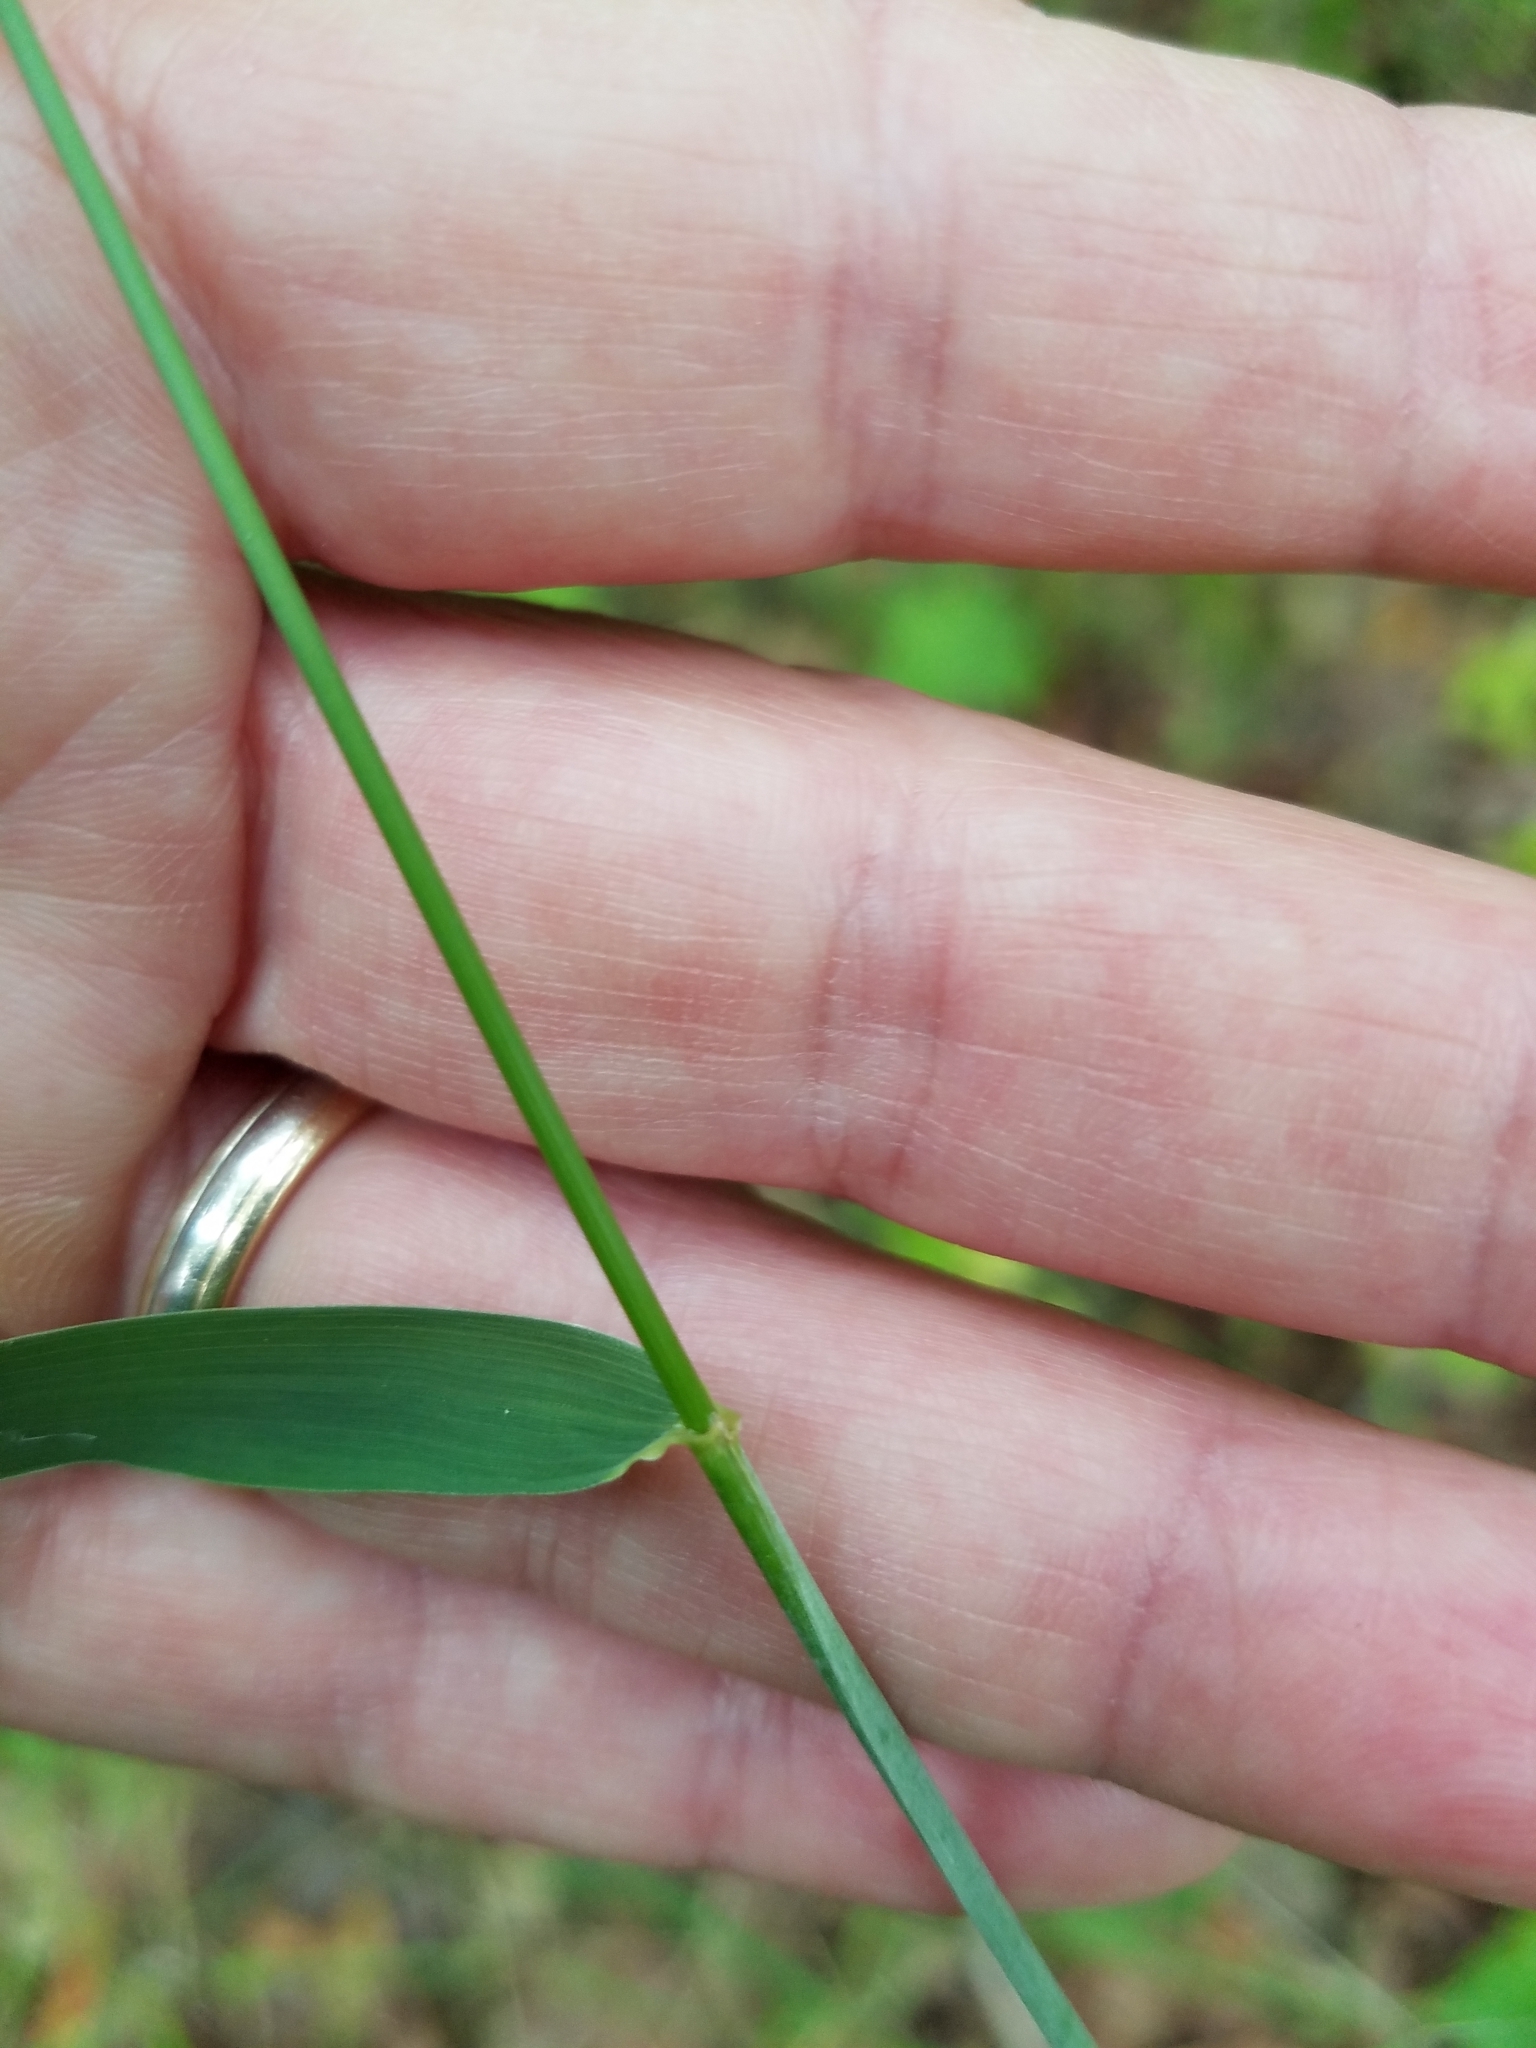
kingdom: Plantae
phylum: Tracheophyta
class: Liliopsida
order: Poales
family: Poaceae
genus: Elymus
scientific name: Elymus glaucus
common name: Blue wild rye
